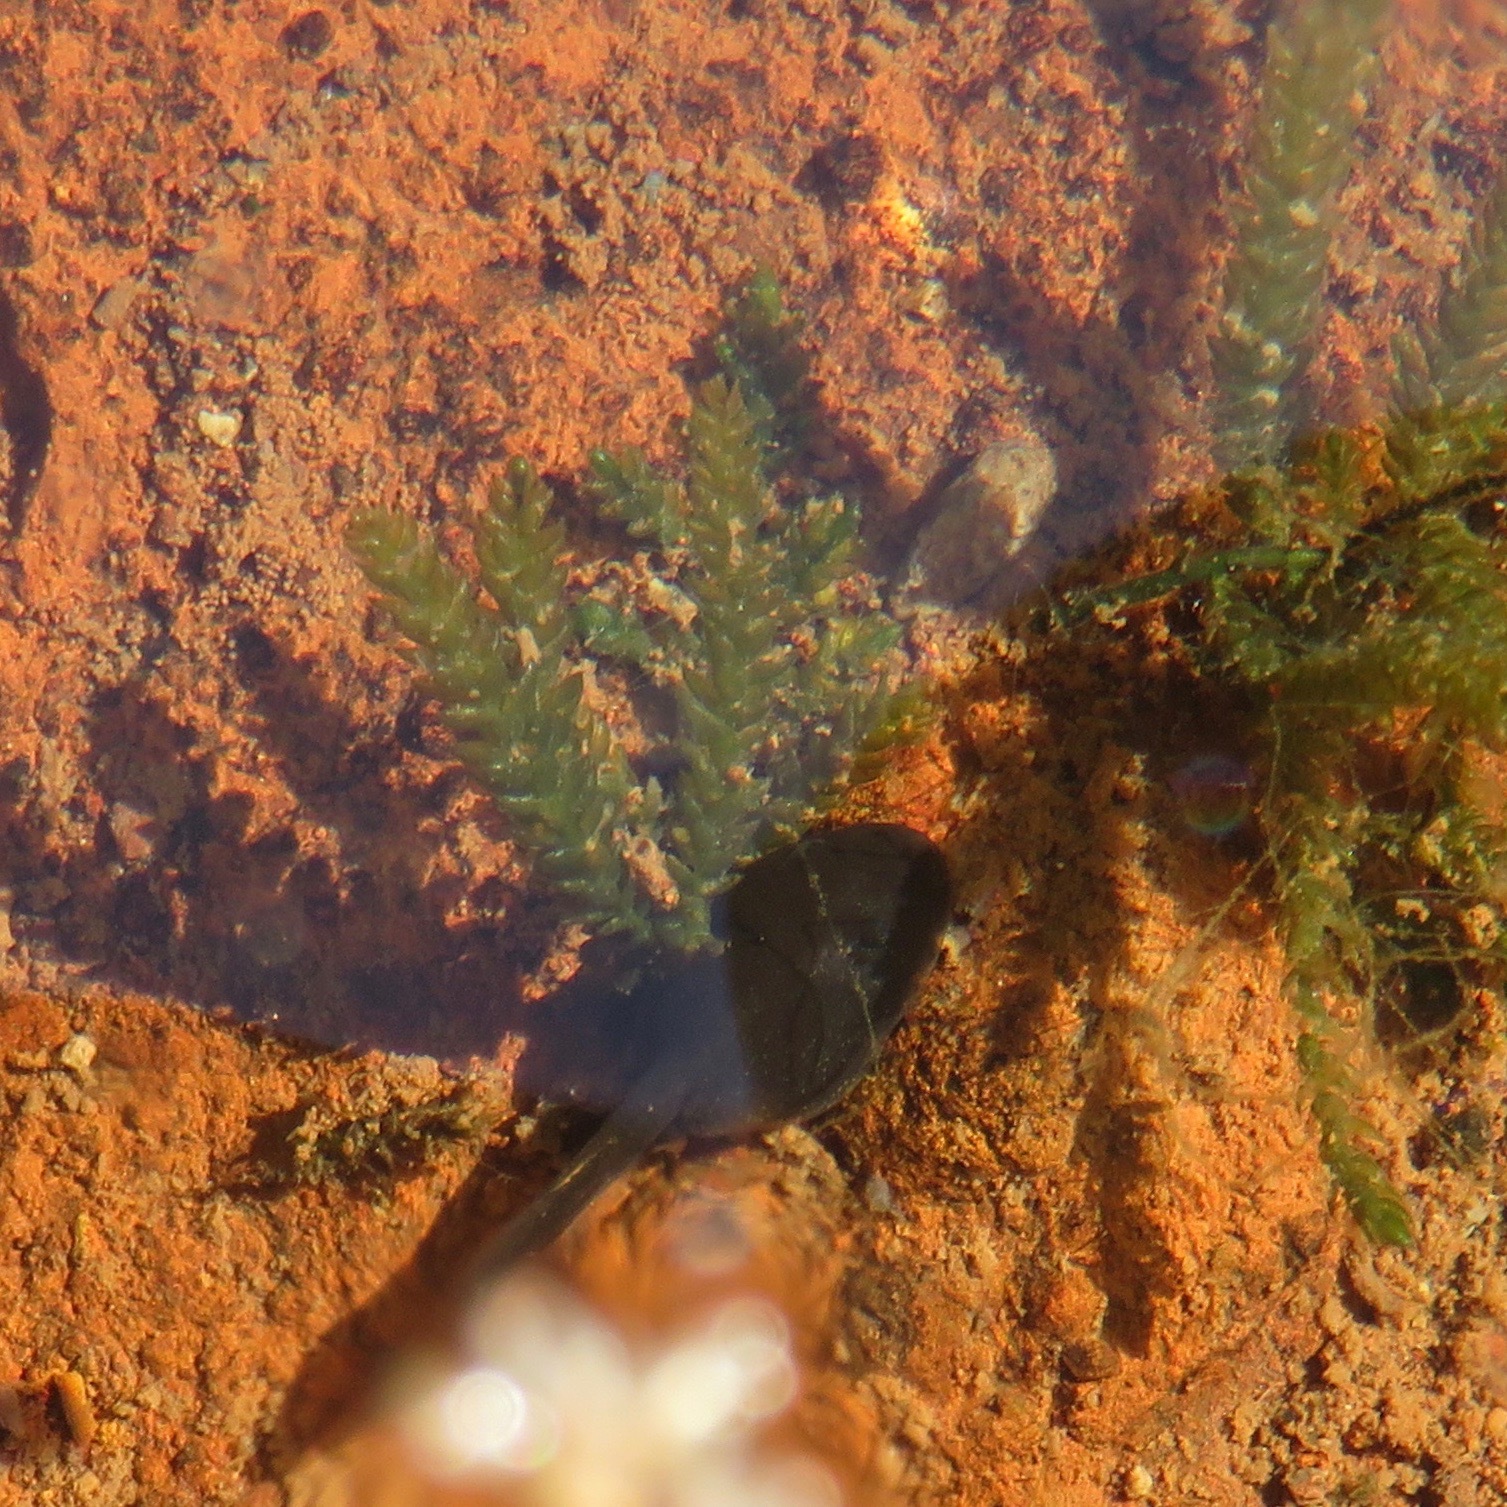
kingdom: Animalia
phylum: Chordata
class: Amphibia
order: Anura
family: Bufonidae
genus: Anaxyrus
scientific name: Anaxyrus boreas
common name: Western toad
